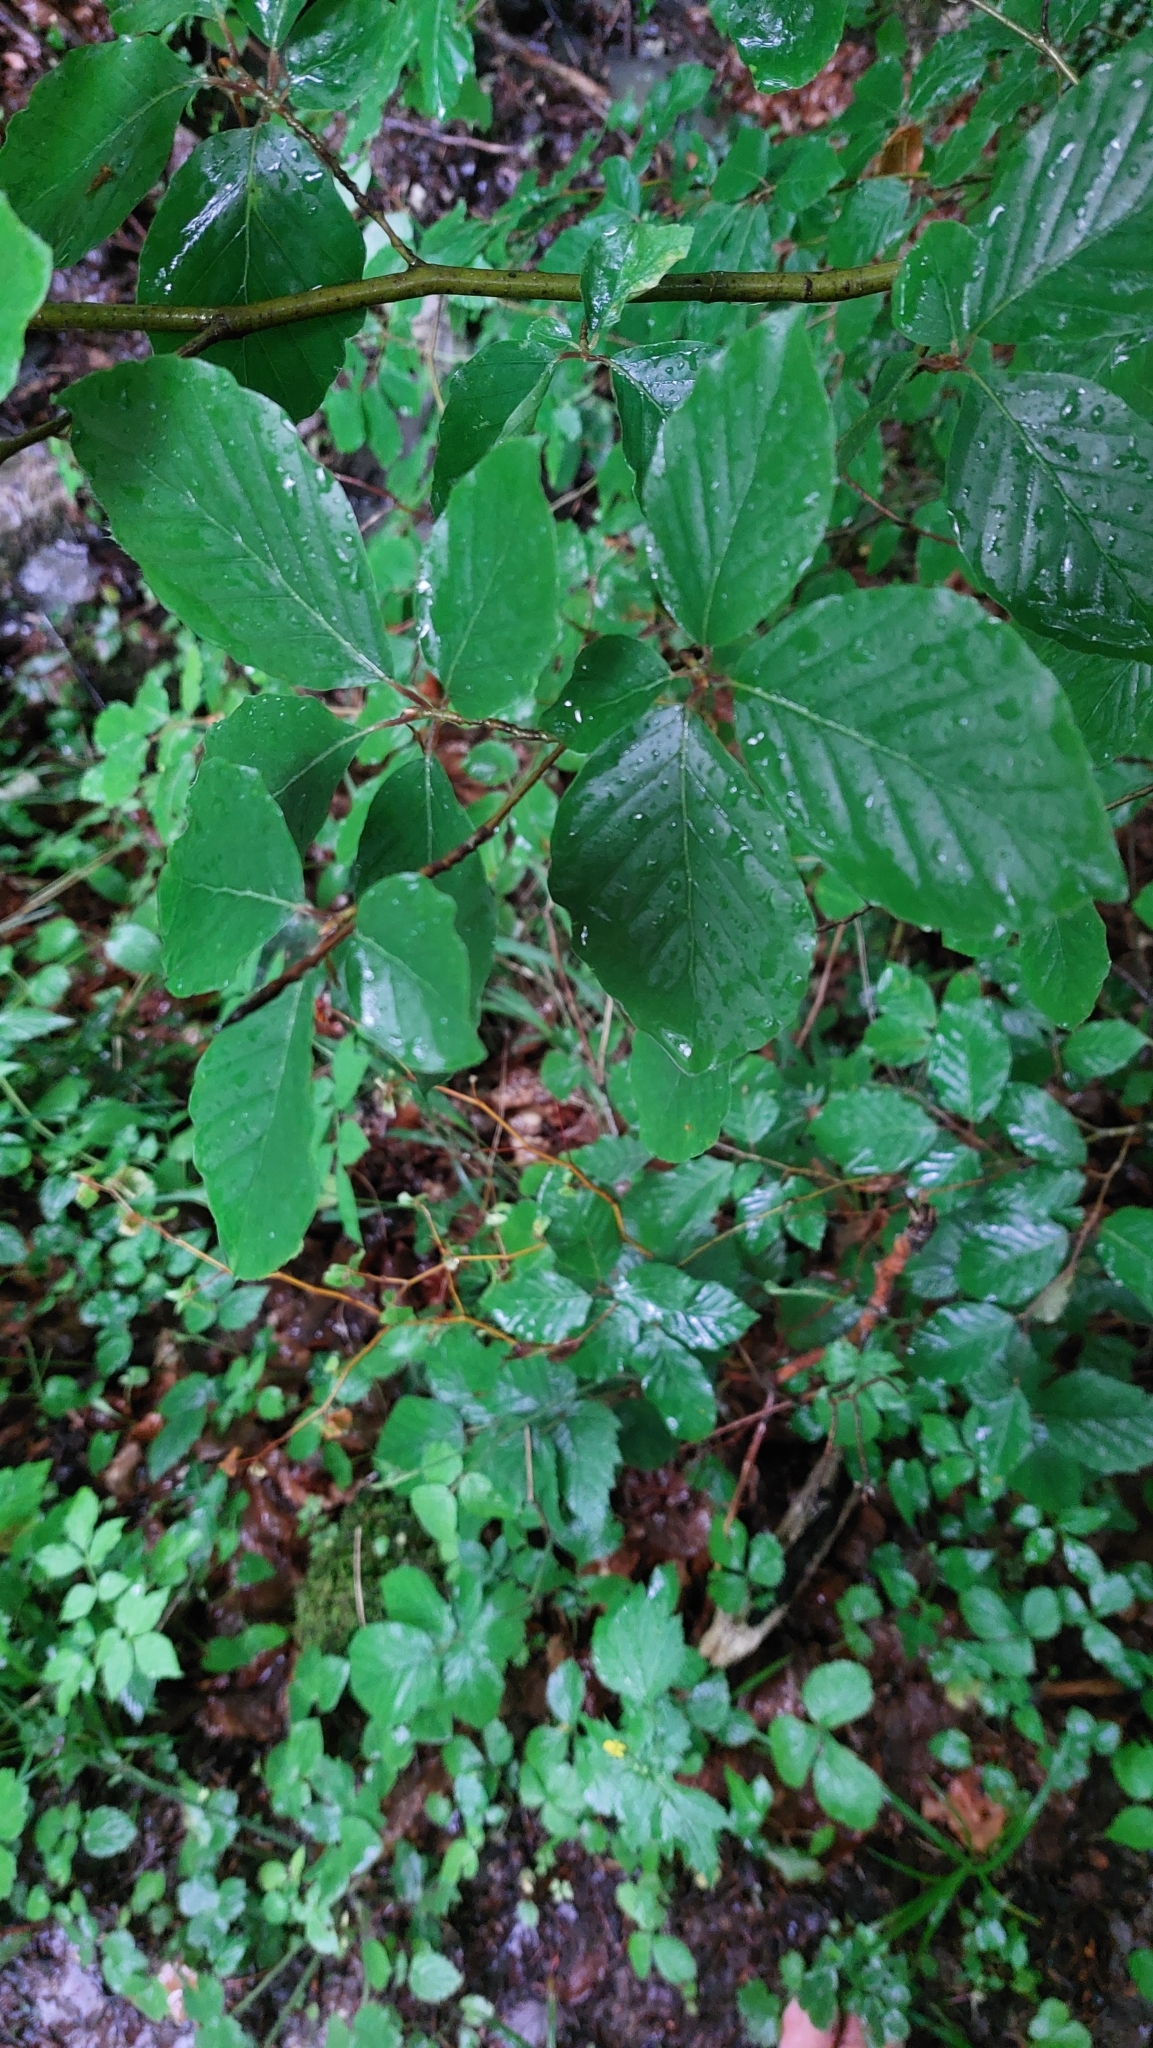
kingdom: Plantae
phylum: Tracheophyta
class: Magnoliopsida
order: Fagales
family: Fagaceae
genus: Fagus
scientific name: Fagus sylvatica
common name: Beech
